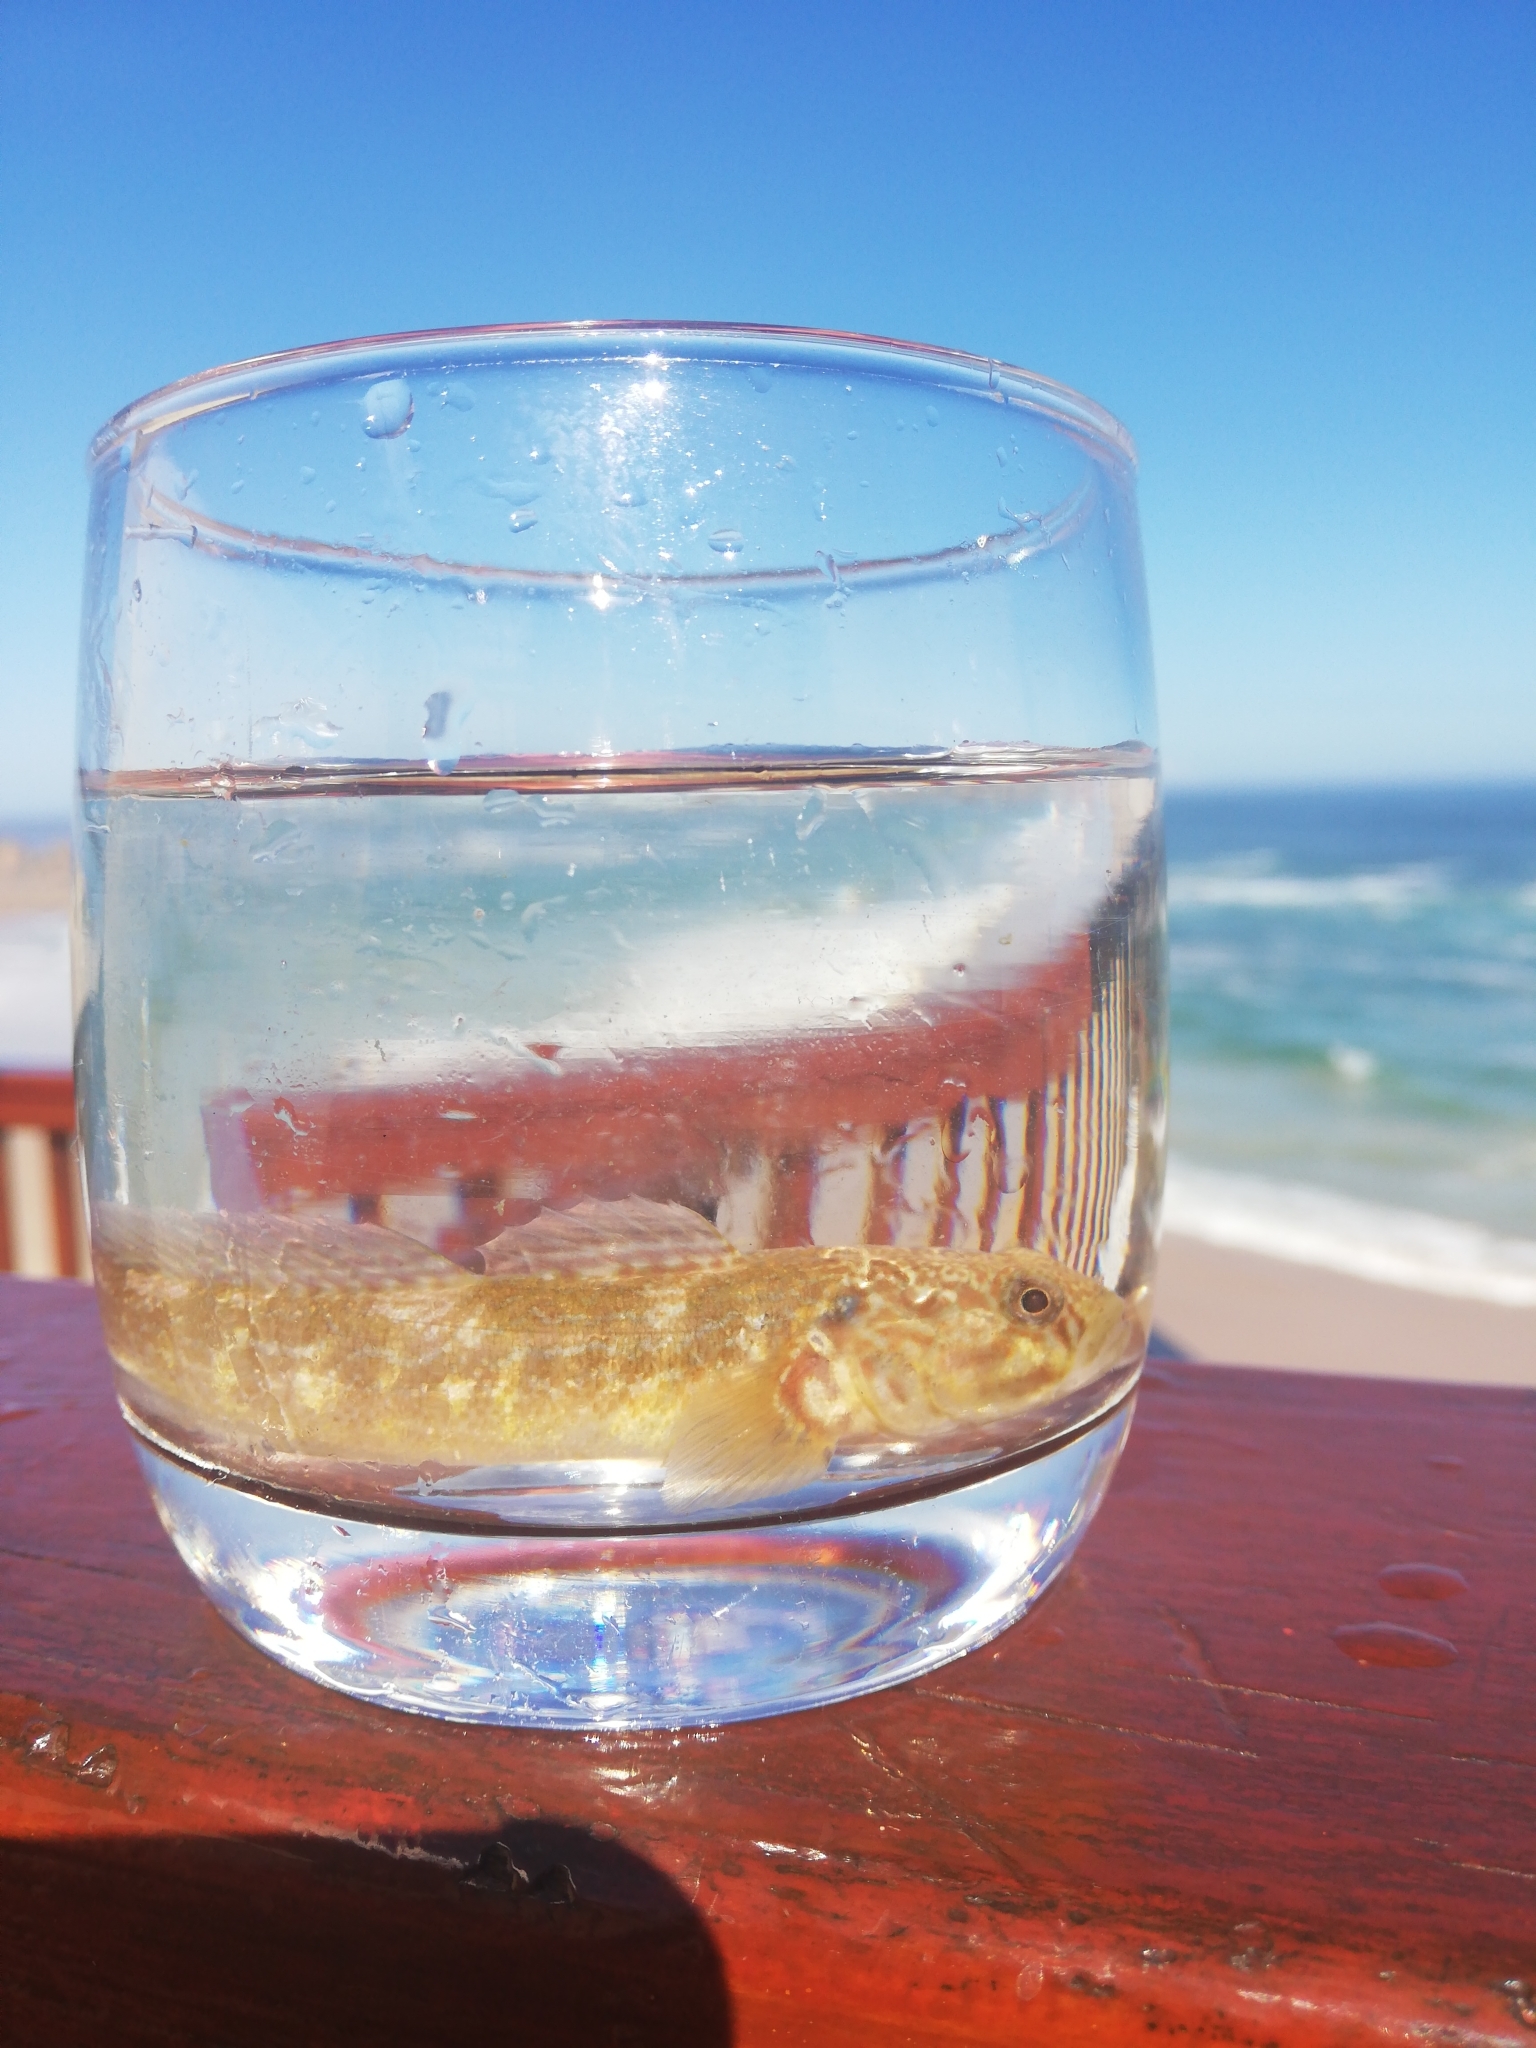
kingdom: Animalia
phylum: Chordata
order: Perciformes
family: Gobiidae
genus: Caffrogobius
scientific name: Caffrogobius caffer
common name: Banded goby
